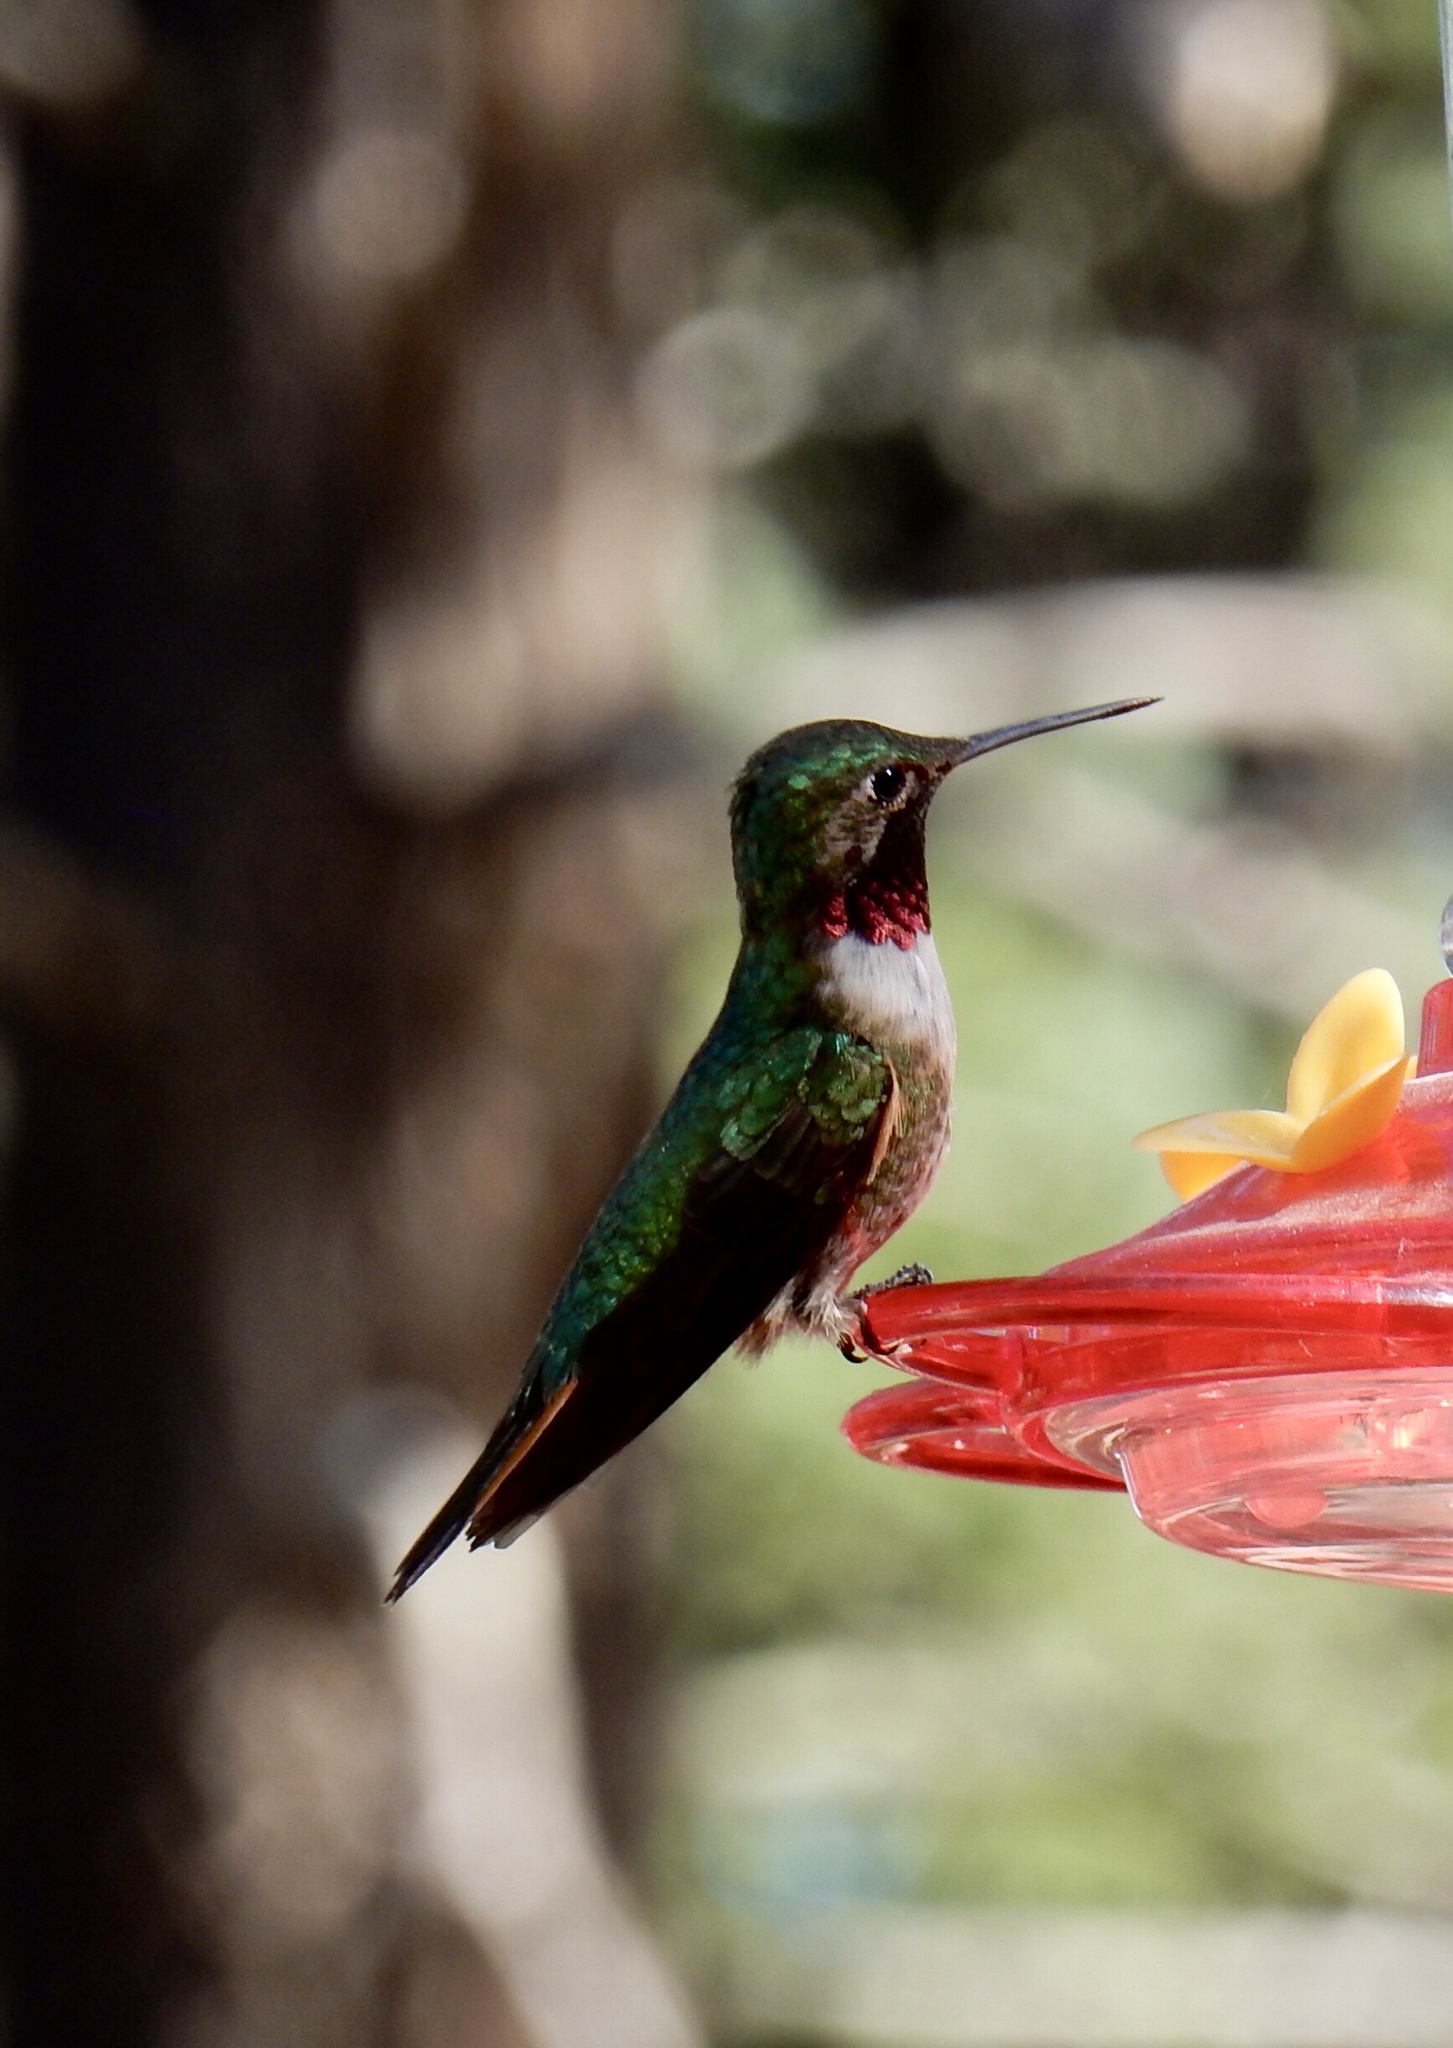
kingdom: Animalia
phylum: Chordata
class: Aves
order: Apodiformes
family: Trochilidae
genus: Selasphorus
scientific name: Selasphorus platycercus
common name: Broad-tailed hummingbird
